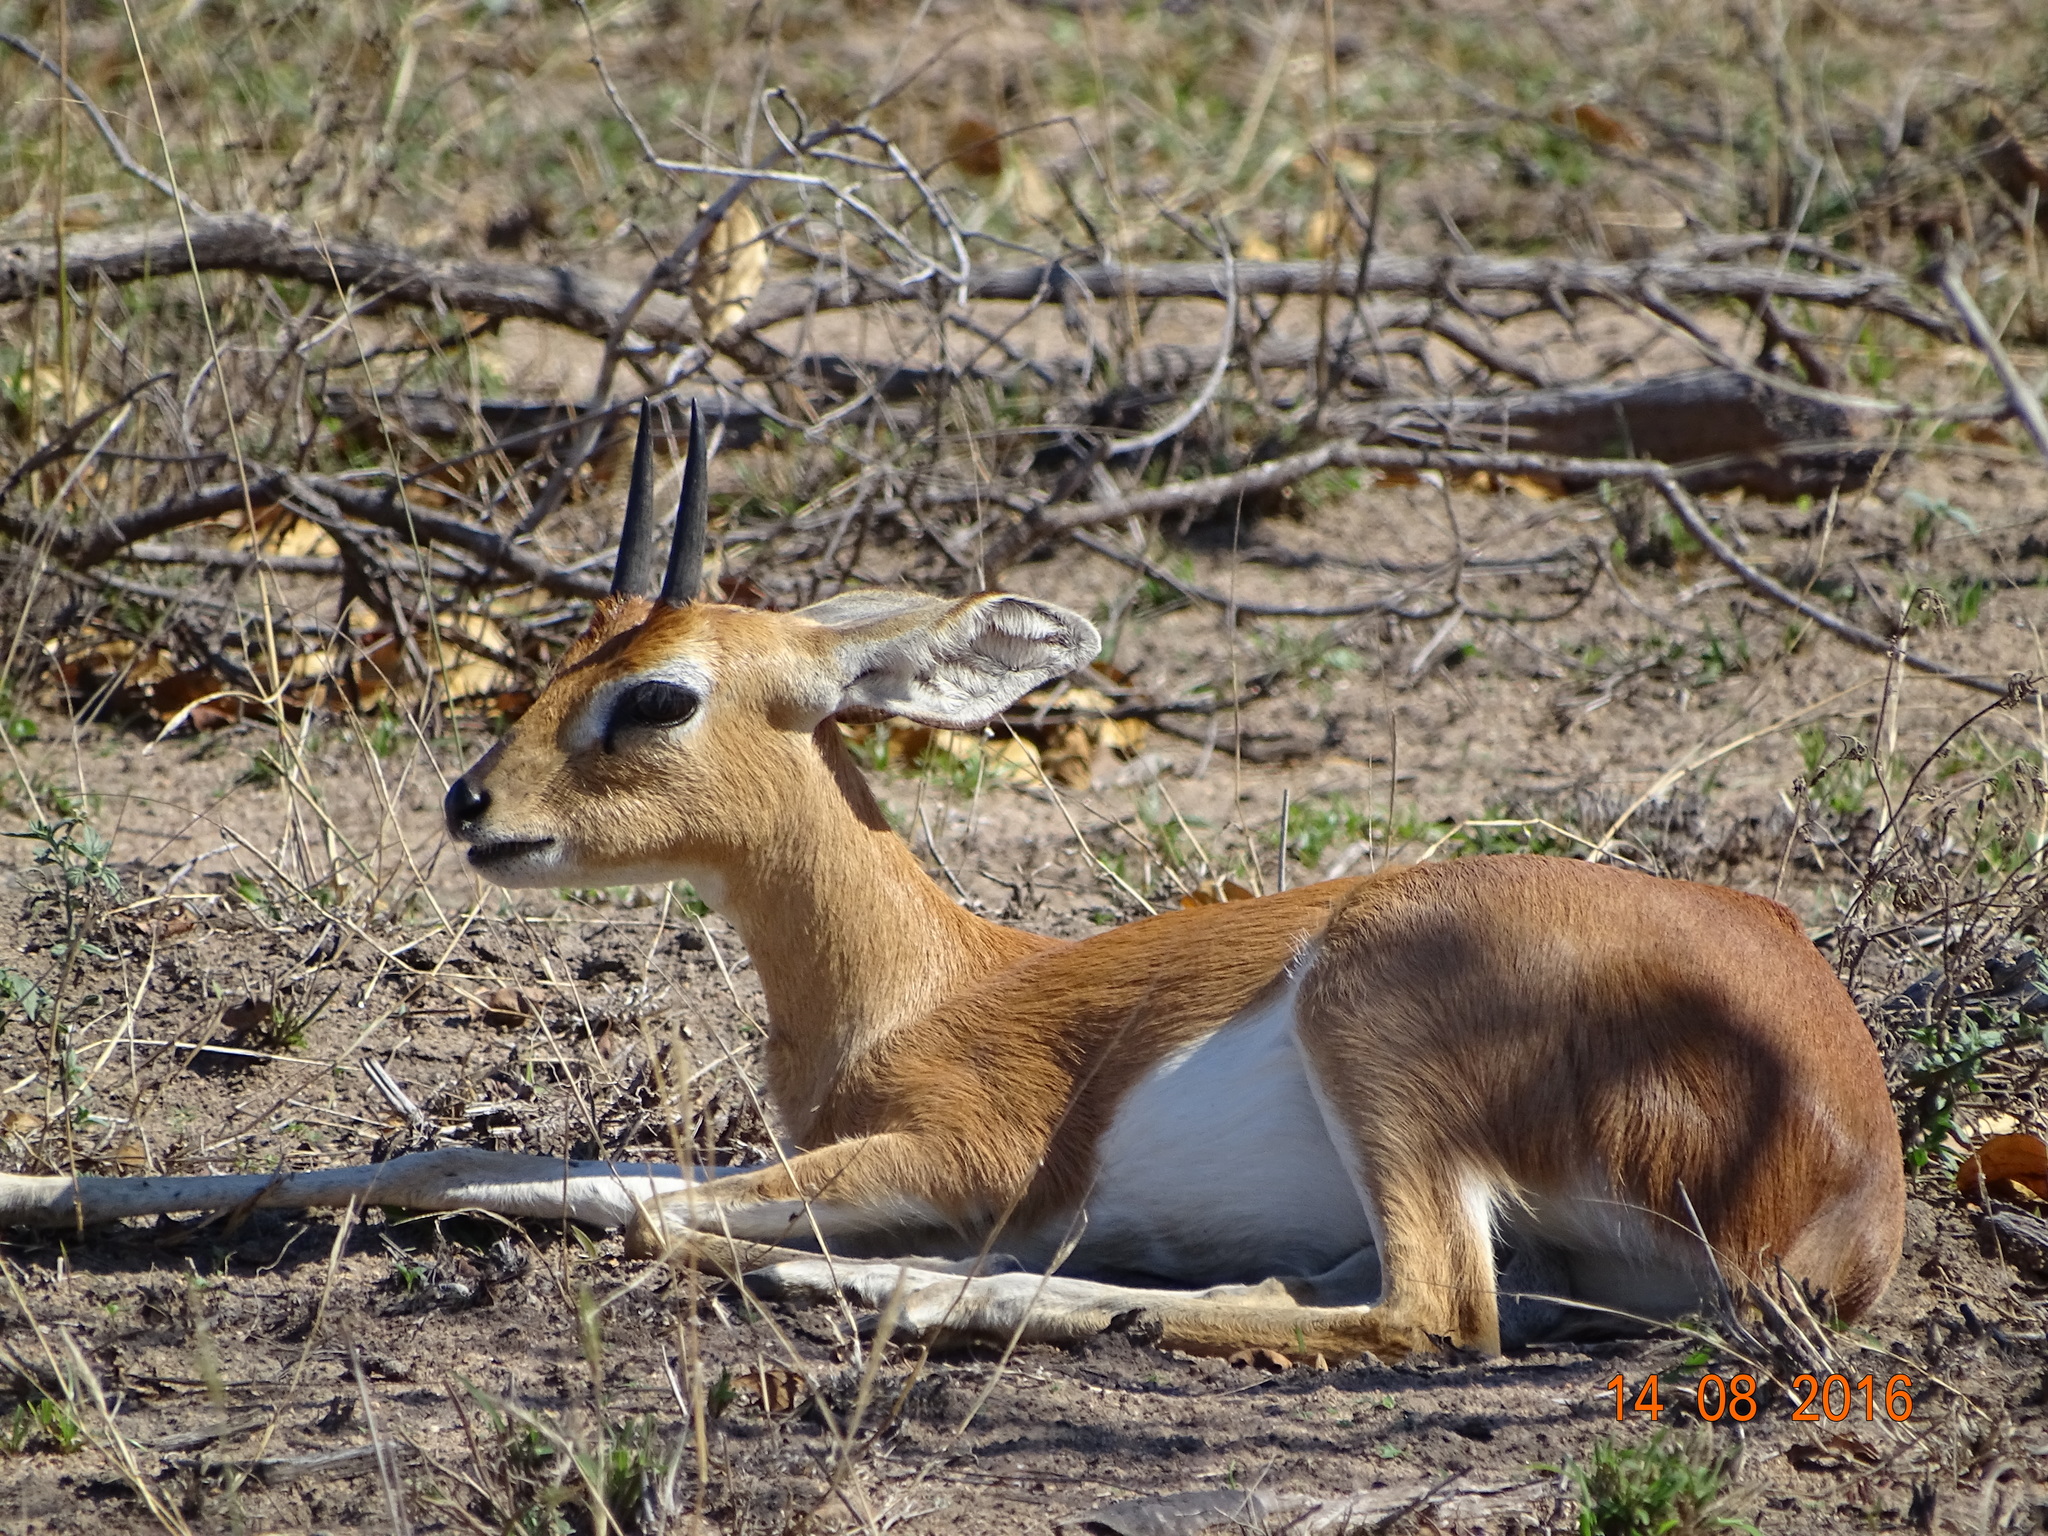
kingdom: Animalia
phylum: Chordata
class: Mammalia
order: Artiodactyla
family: Bovidae
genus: Raphicerus
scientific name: Raphicerus campestris
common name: Steenbok
